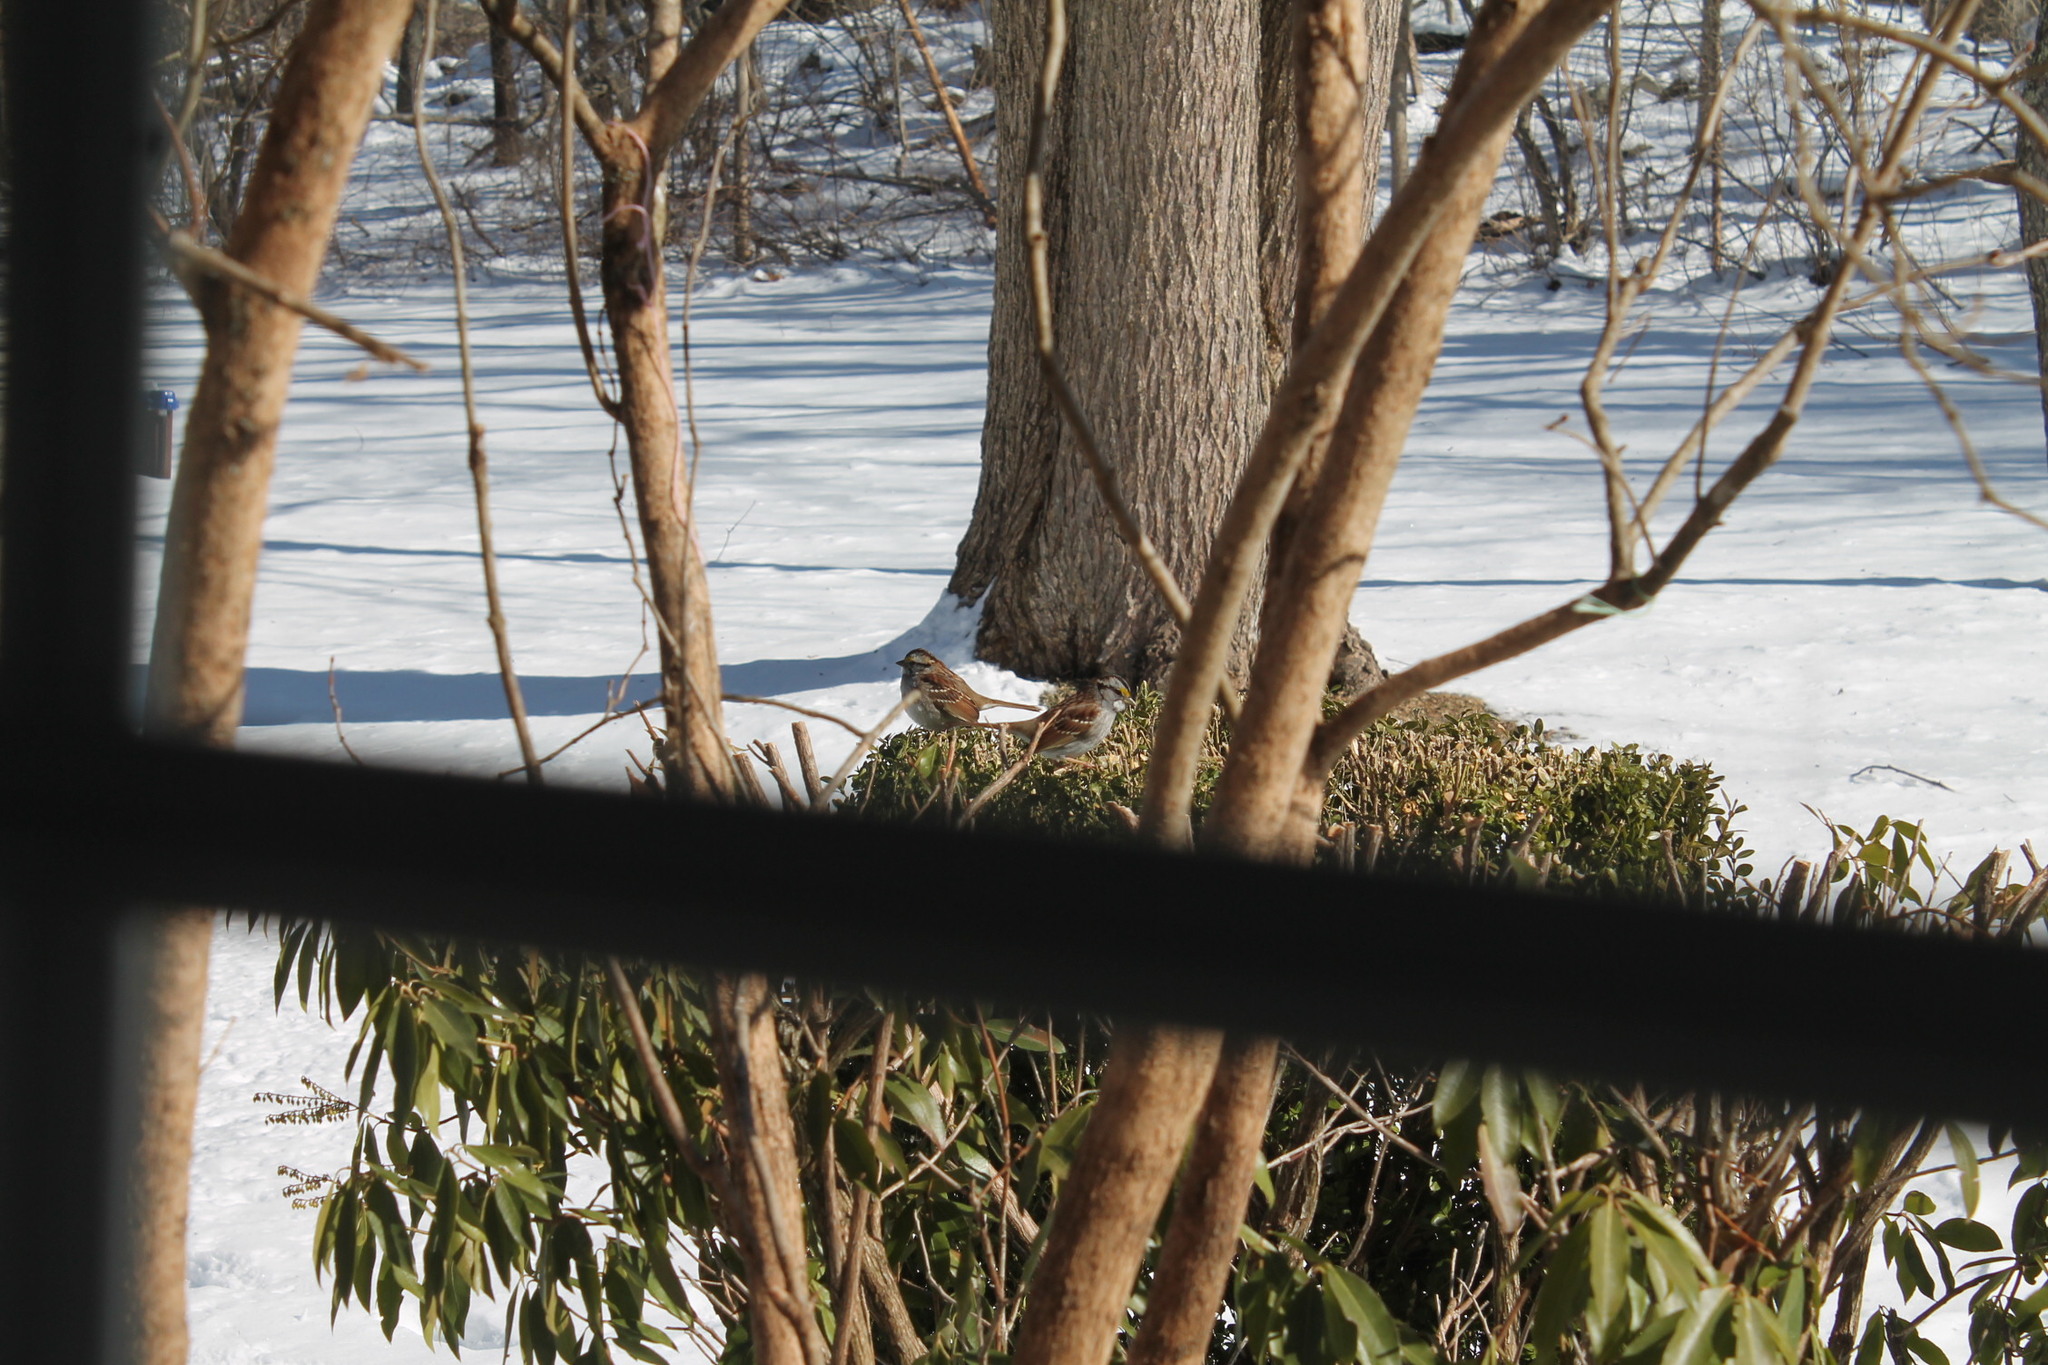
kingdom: Animalia
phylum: Chordata
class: Aves
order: Passeriformes
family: Passerellidae
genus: Zonotrichia
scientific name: Zonotrichia albicollis
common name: White-throated sparrow
